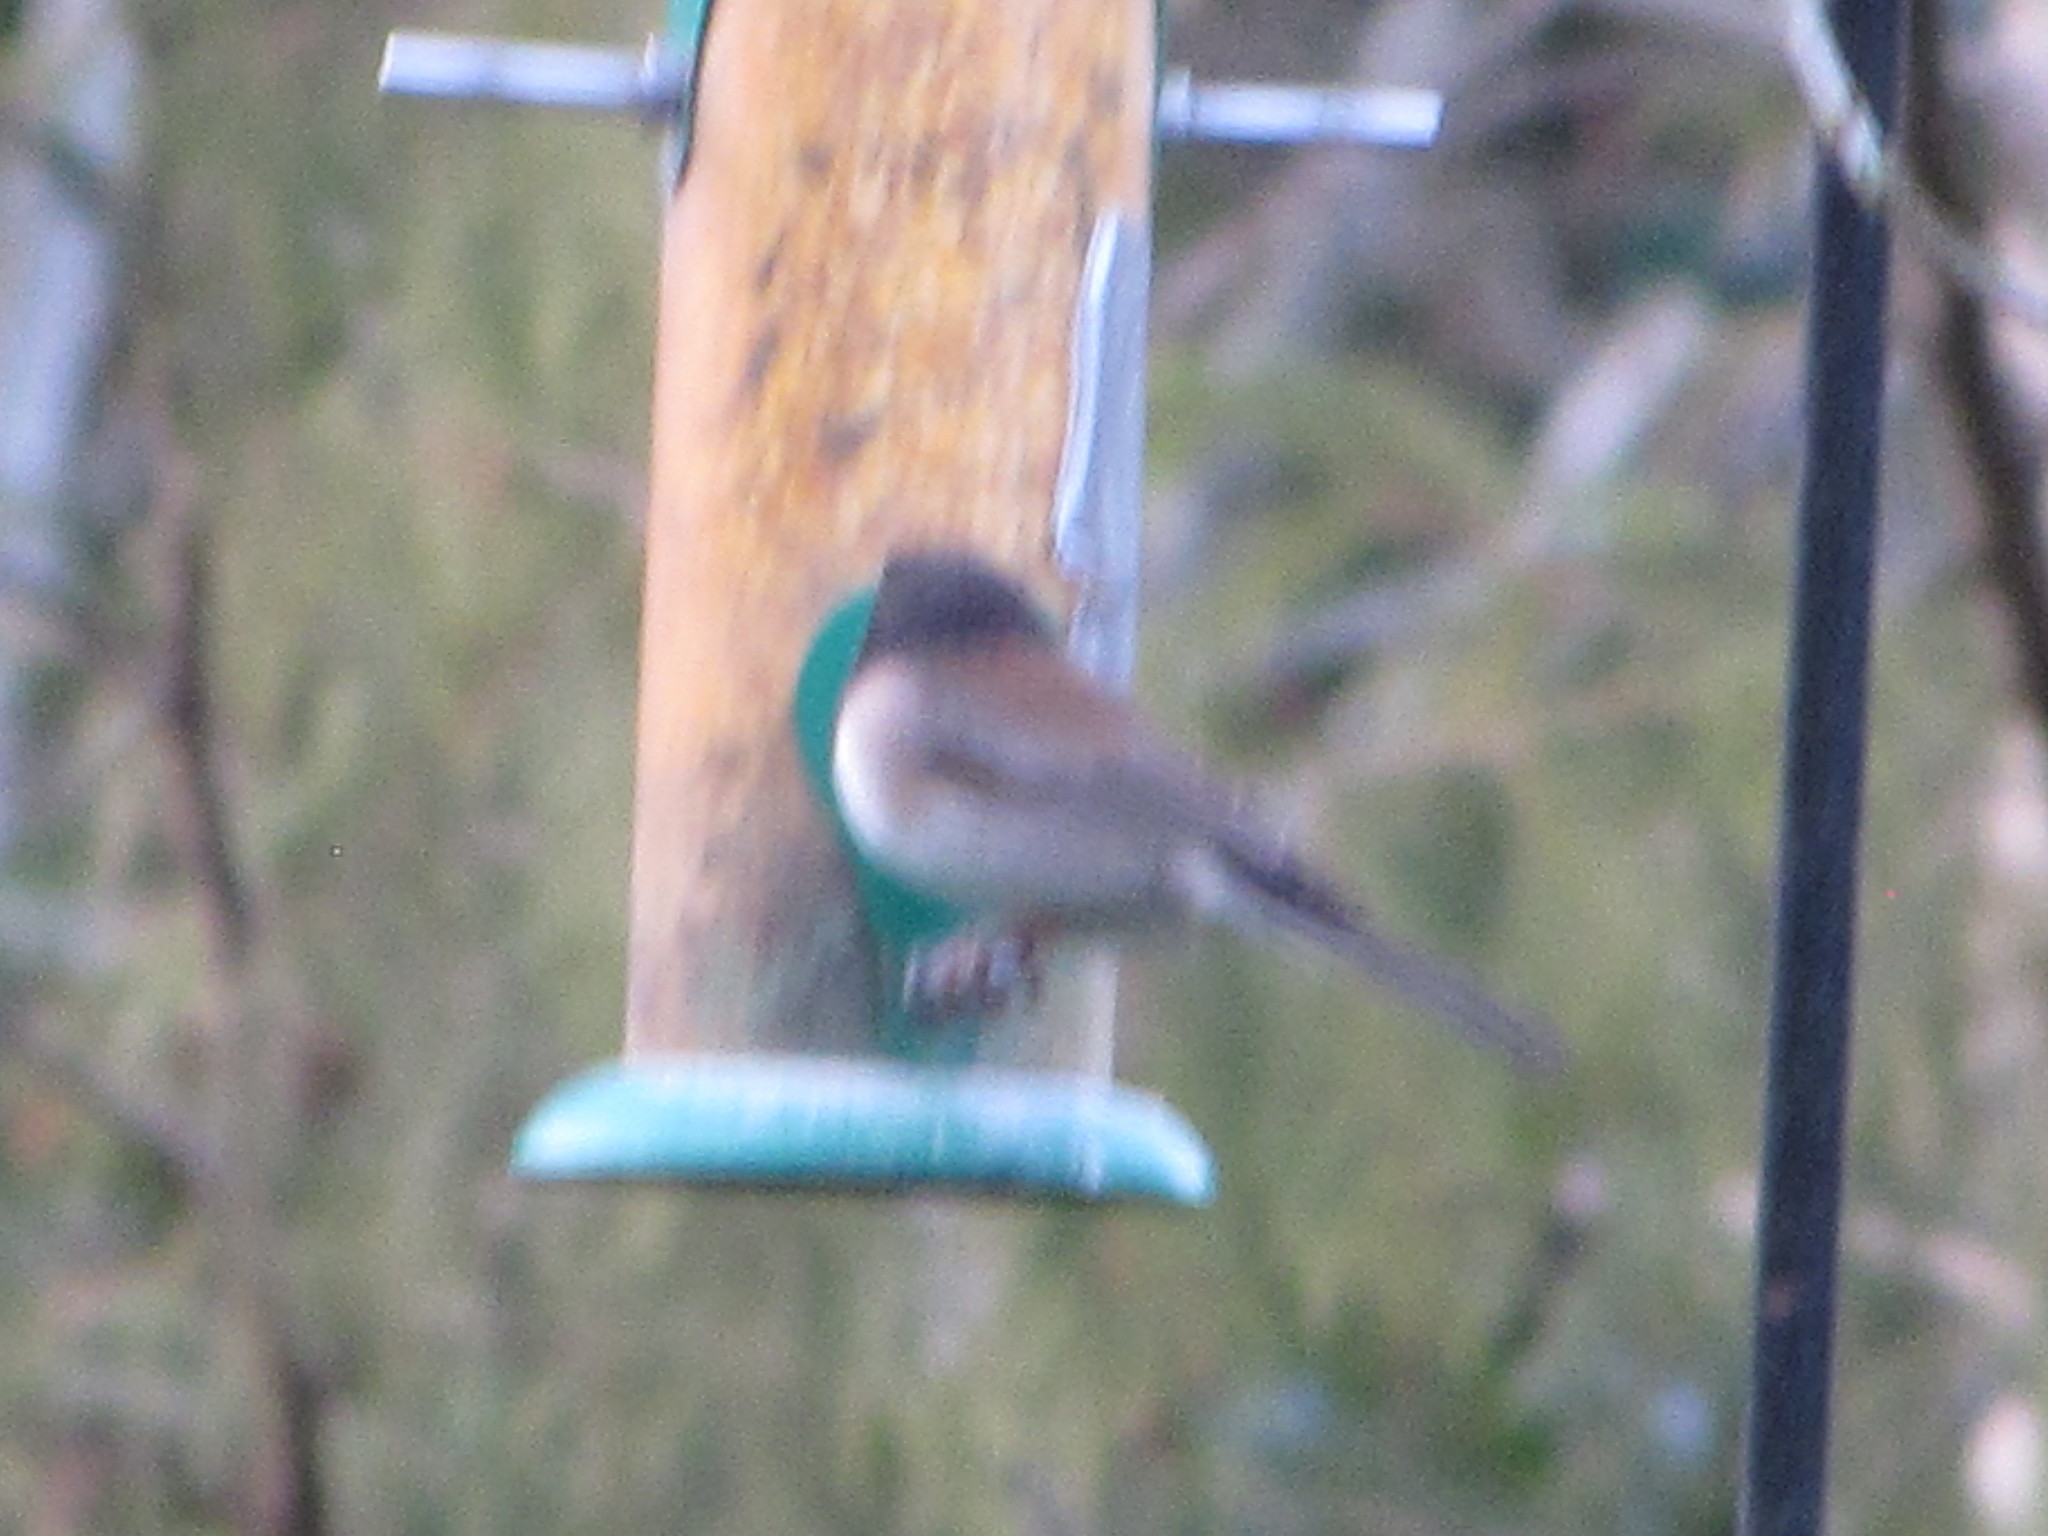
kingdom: Animalia
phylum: Chordata
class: Aves
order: Passeriformes
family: Passerellidae
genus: Junco
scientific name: Junco hyemalis
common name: Dark-eyed junco
